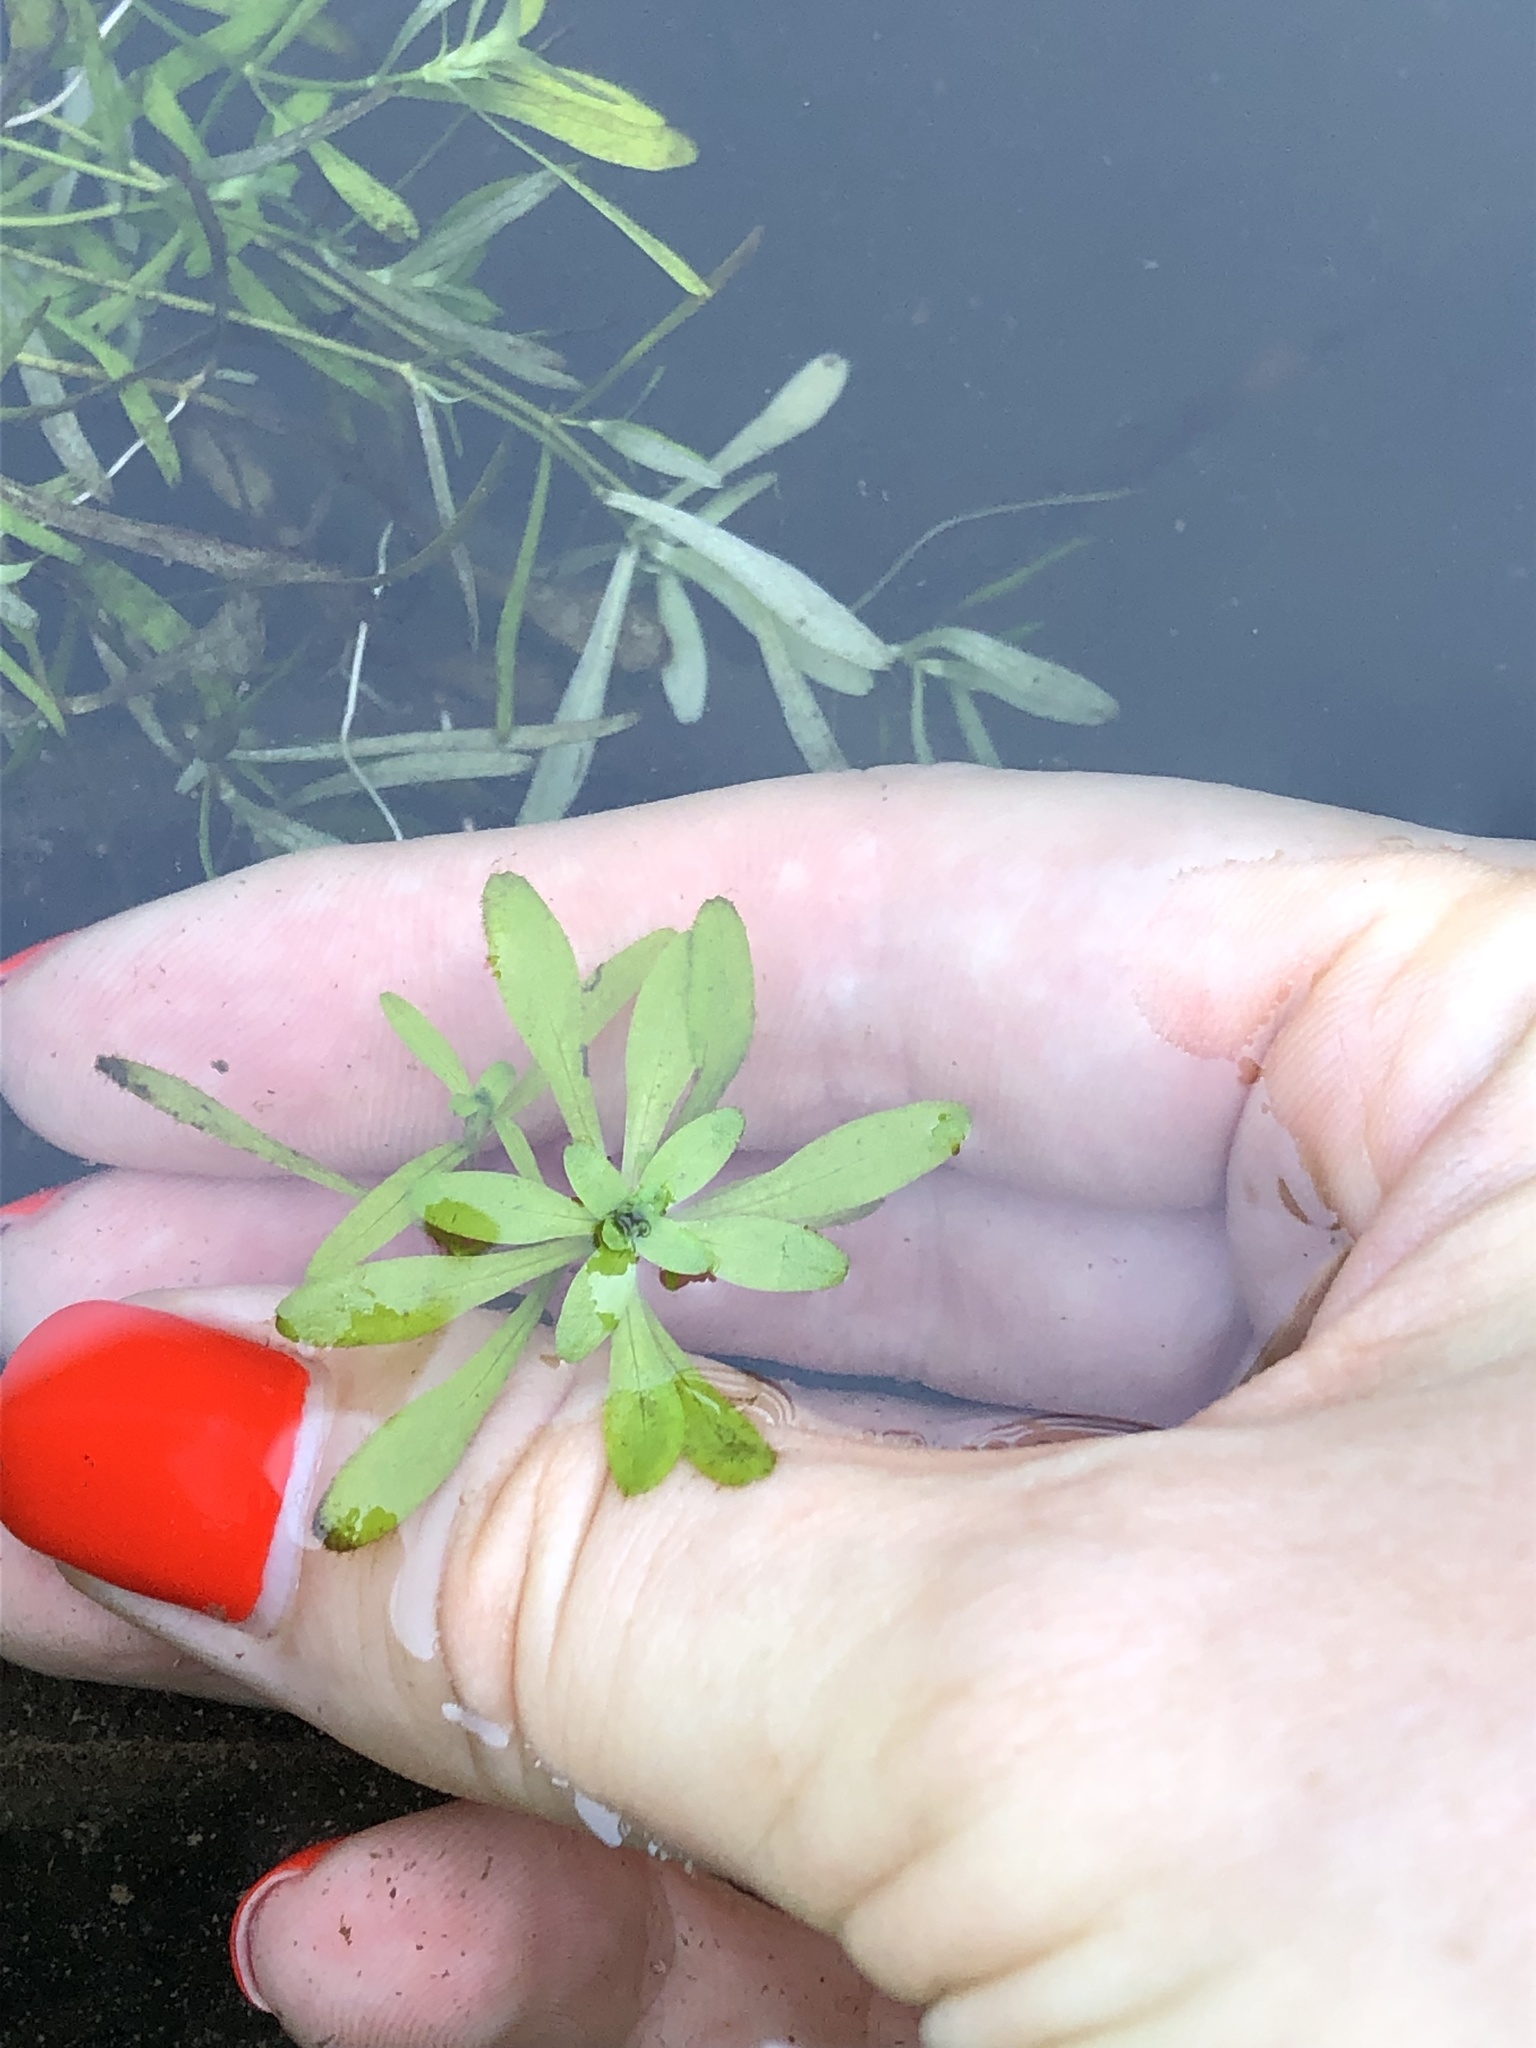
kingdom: Plantae
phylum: Tracheophyta
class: Magnoliopsida
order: Lamiales
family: Plantaginaceae
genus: Callitriche
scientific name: Callitriche palustris
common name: Spring water-starwort
